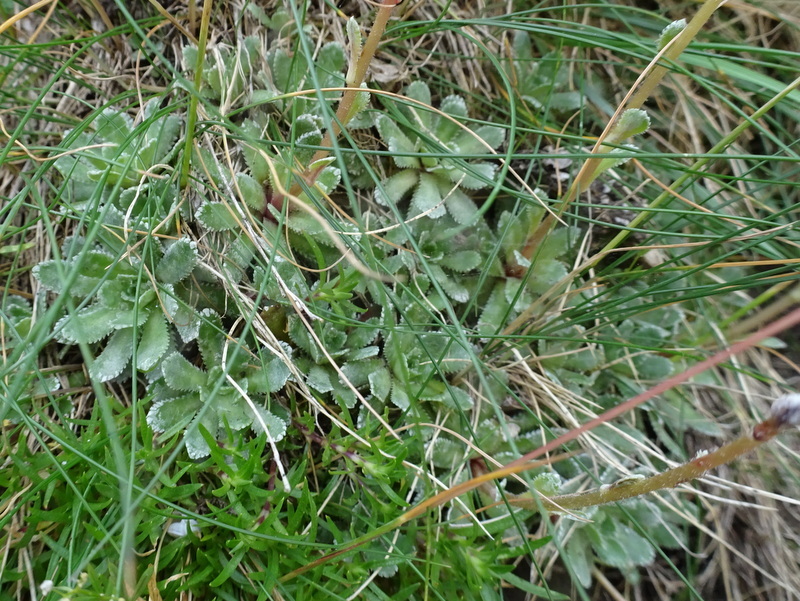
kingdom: Plantae
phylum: Tracheophyta
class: Magnoliopsida
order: Saxifragales
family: Saxifragaceae
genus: Saxifraga
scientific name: Saxifraga paniculata
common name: Livelong saxifrage
